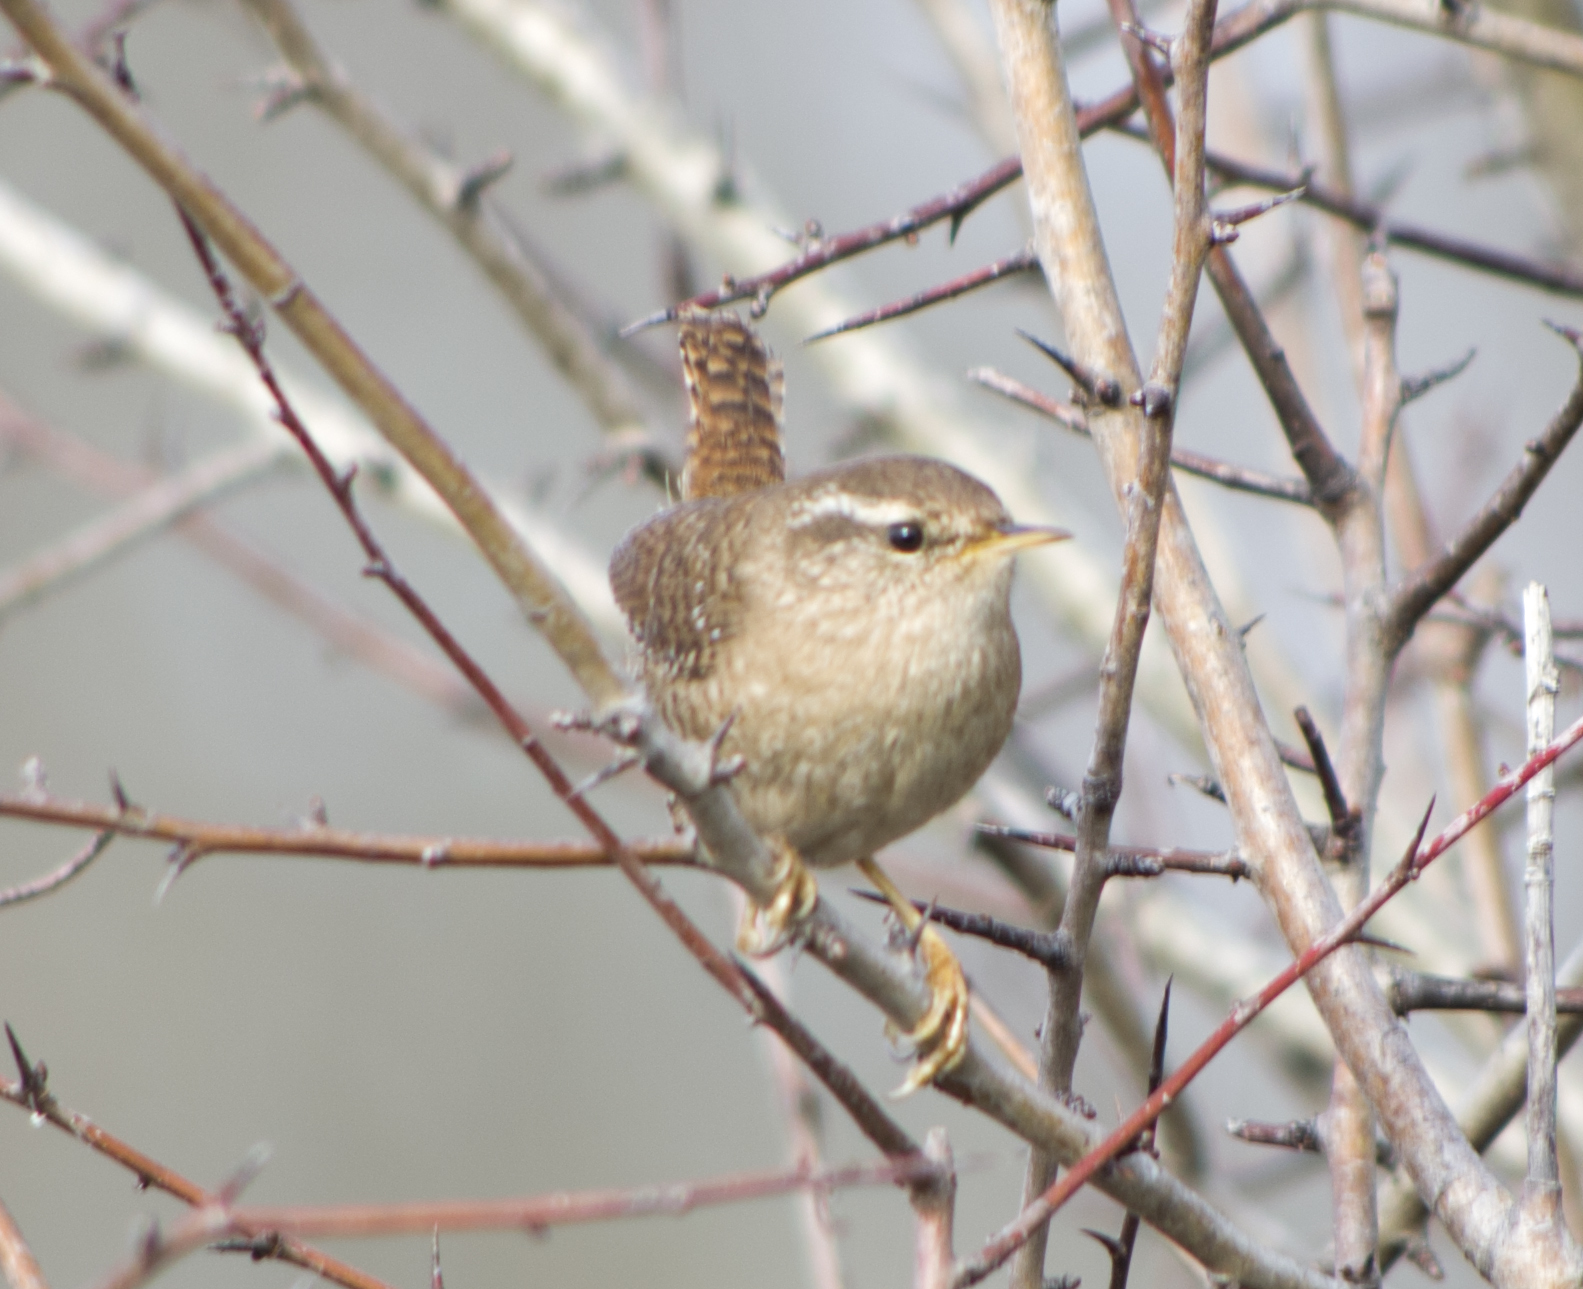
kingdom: Animalia
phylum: Chordata
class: Aves
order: Passeriformes
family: Troglodytidae
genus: Troglodytes
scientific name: Troglodytes troglodytes
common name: Eurasian wren
